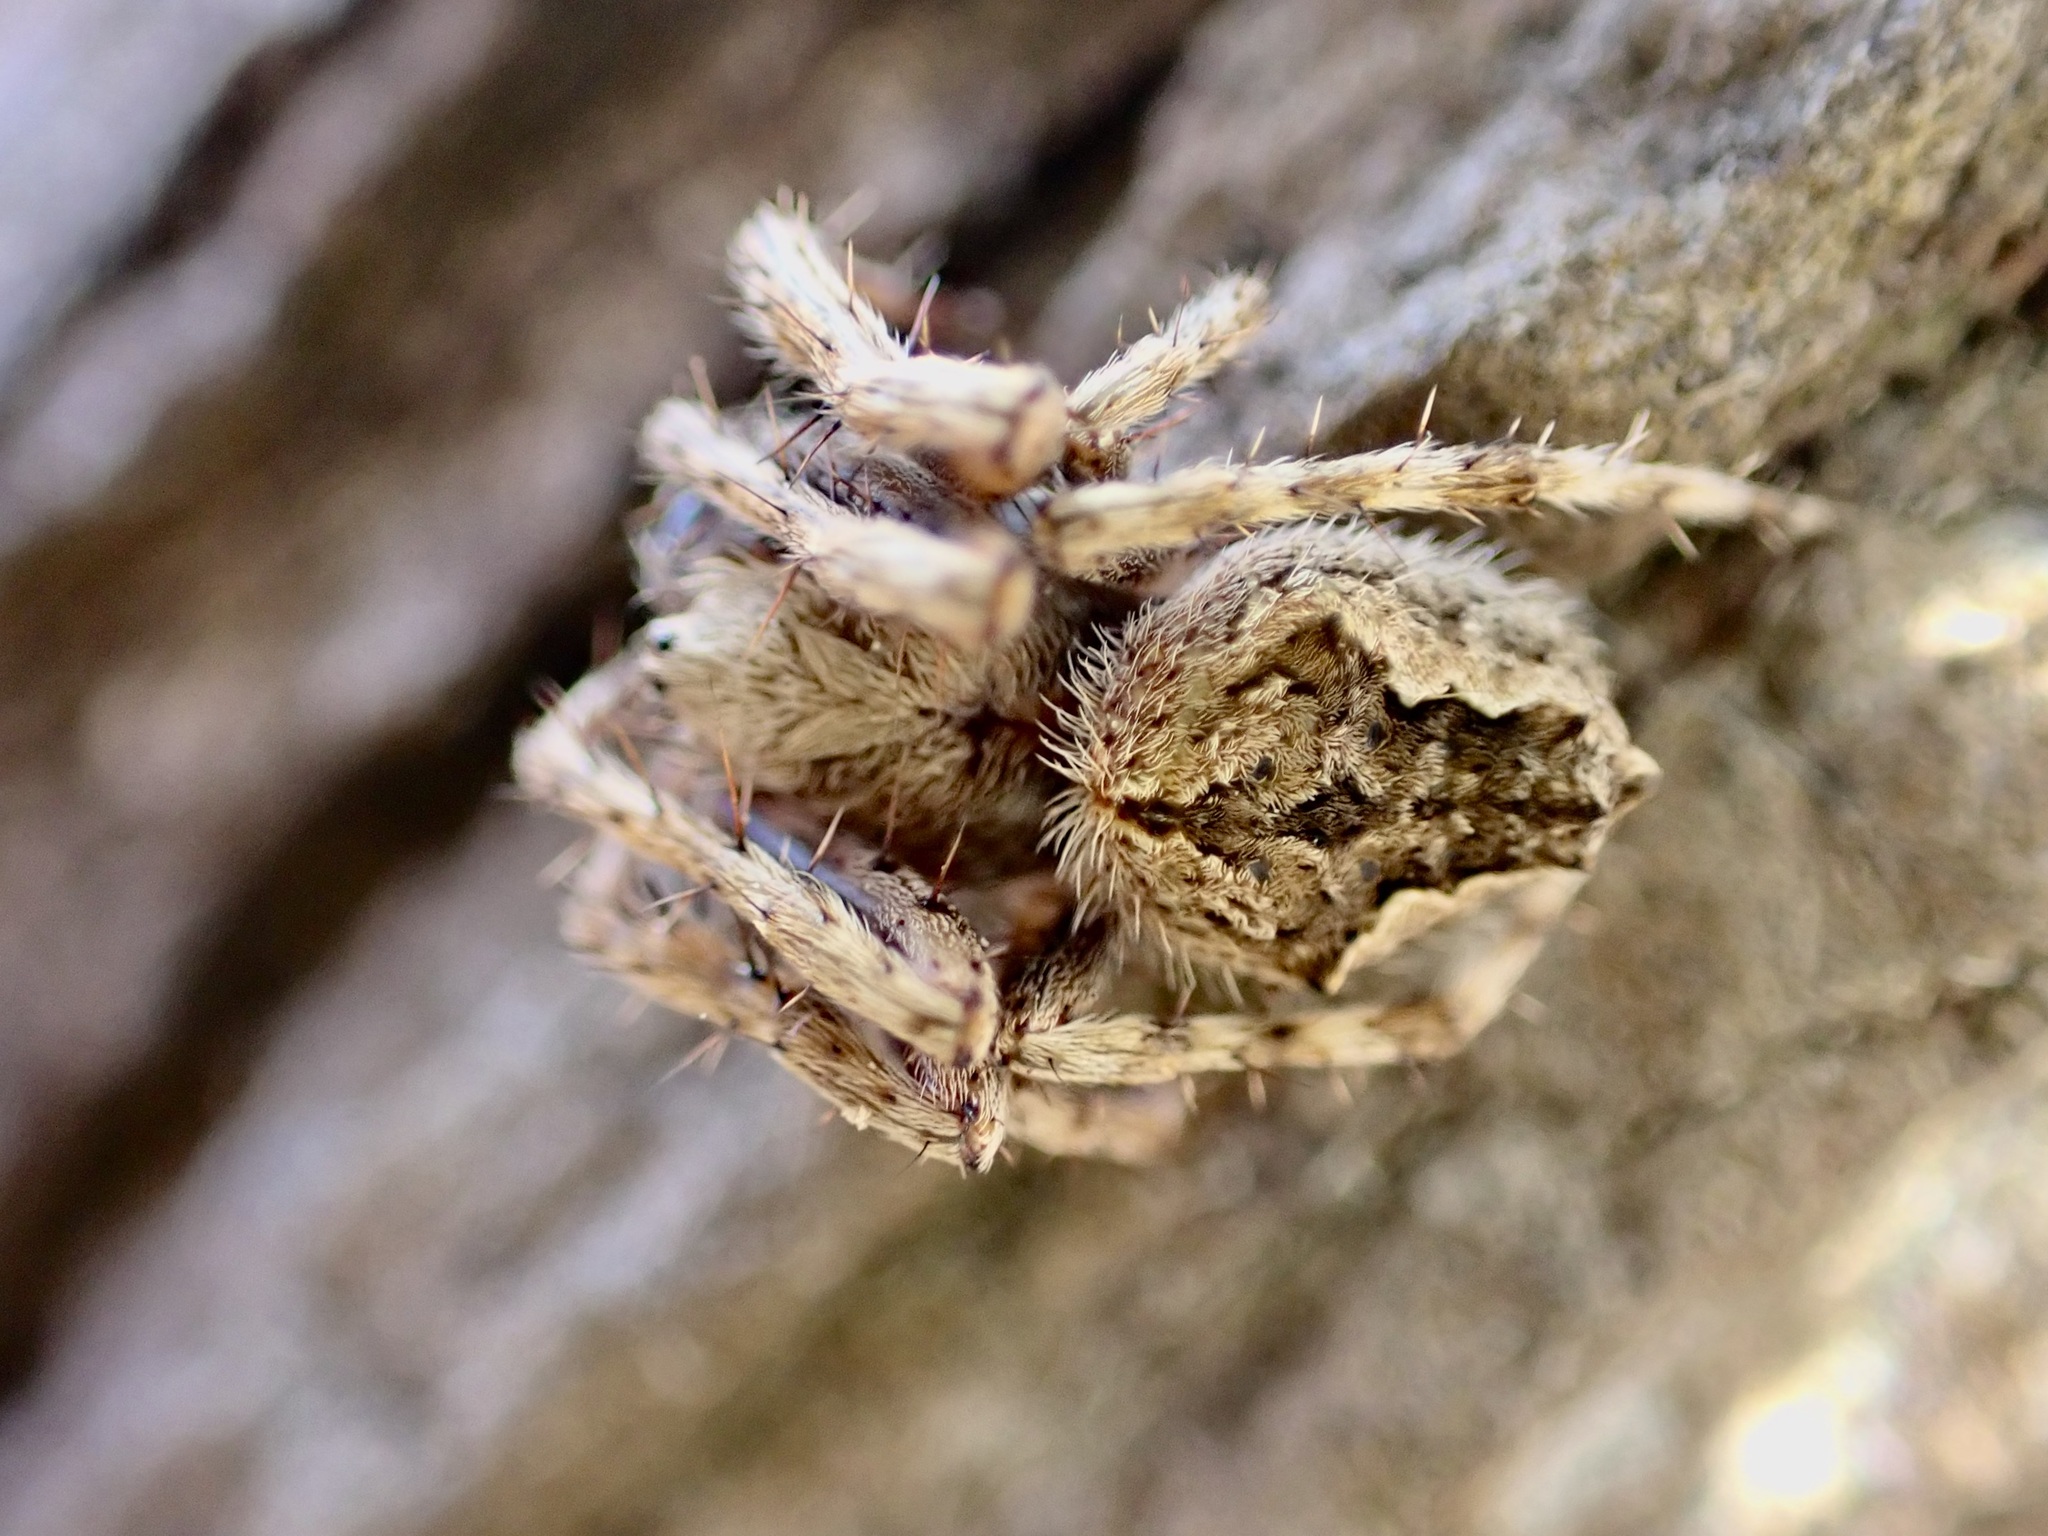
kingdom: Animalia
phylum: Arthropoda
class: Arachnida
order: Araneae
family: Araneidae
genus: Eriophora
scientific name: Eriophora pustulosa
